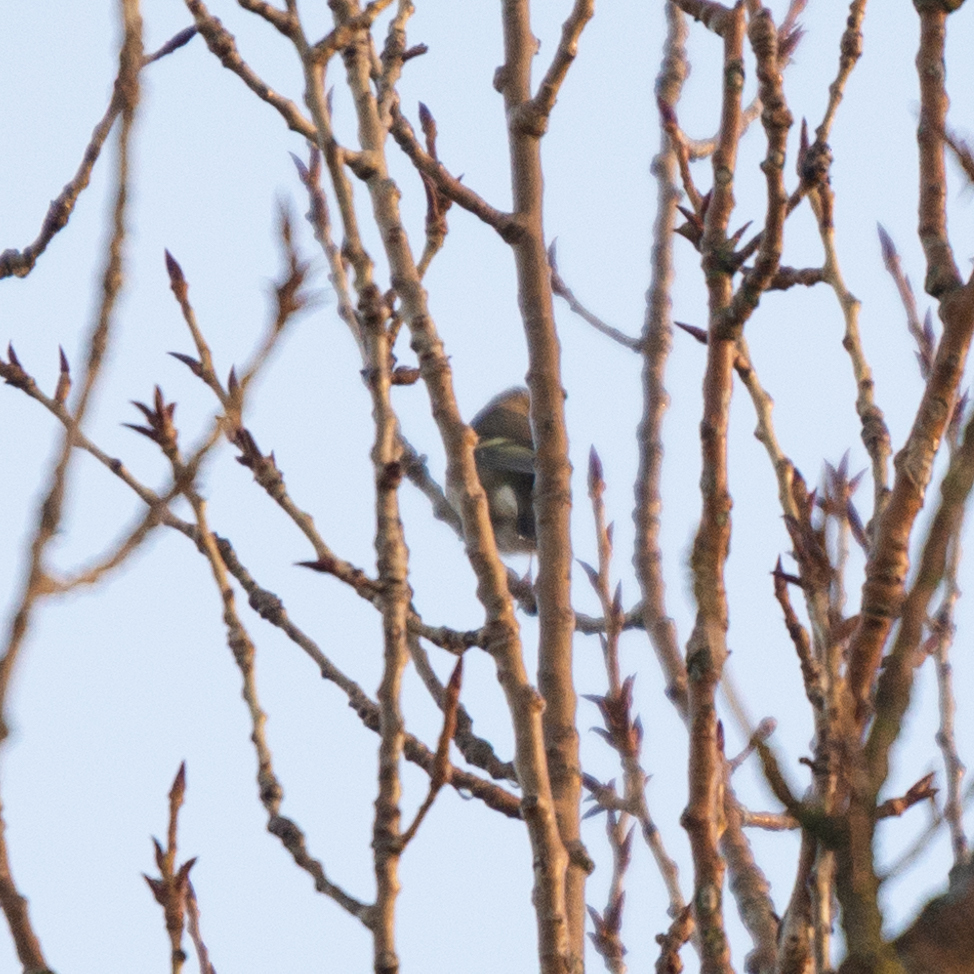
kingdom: Animalia
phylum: Chordata
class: Aves
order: Passeriformes
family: Fringillidae
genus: Fringilla
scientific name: Fringilla coelebs
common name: Common chaffinch
